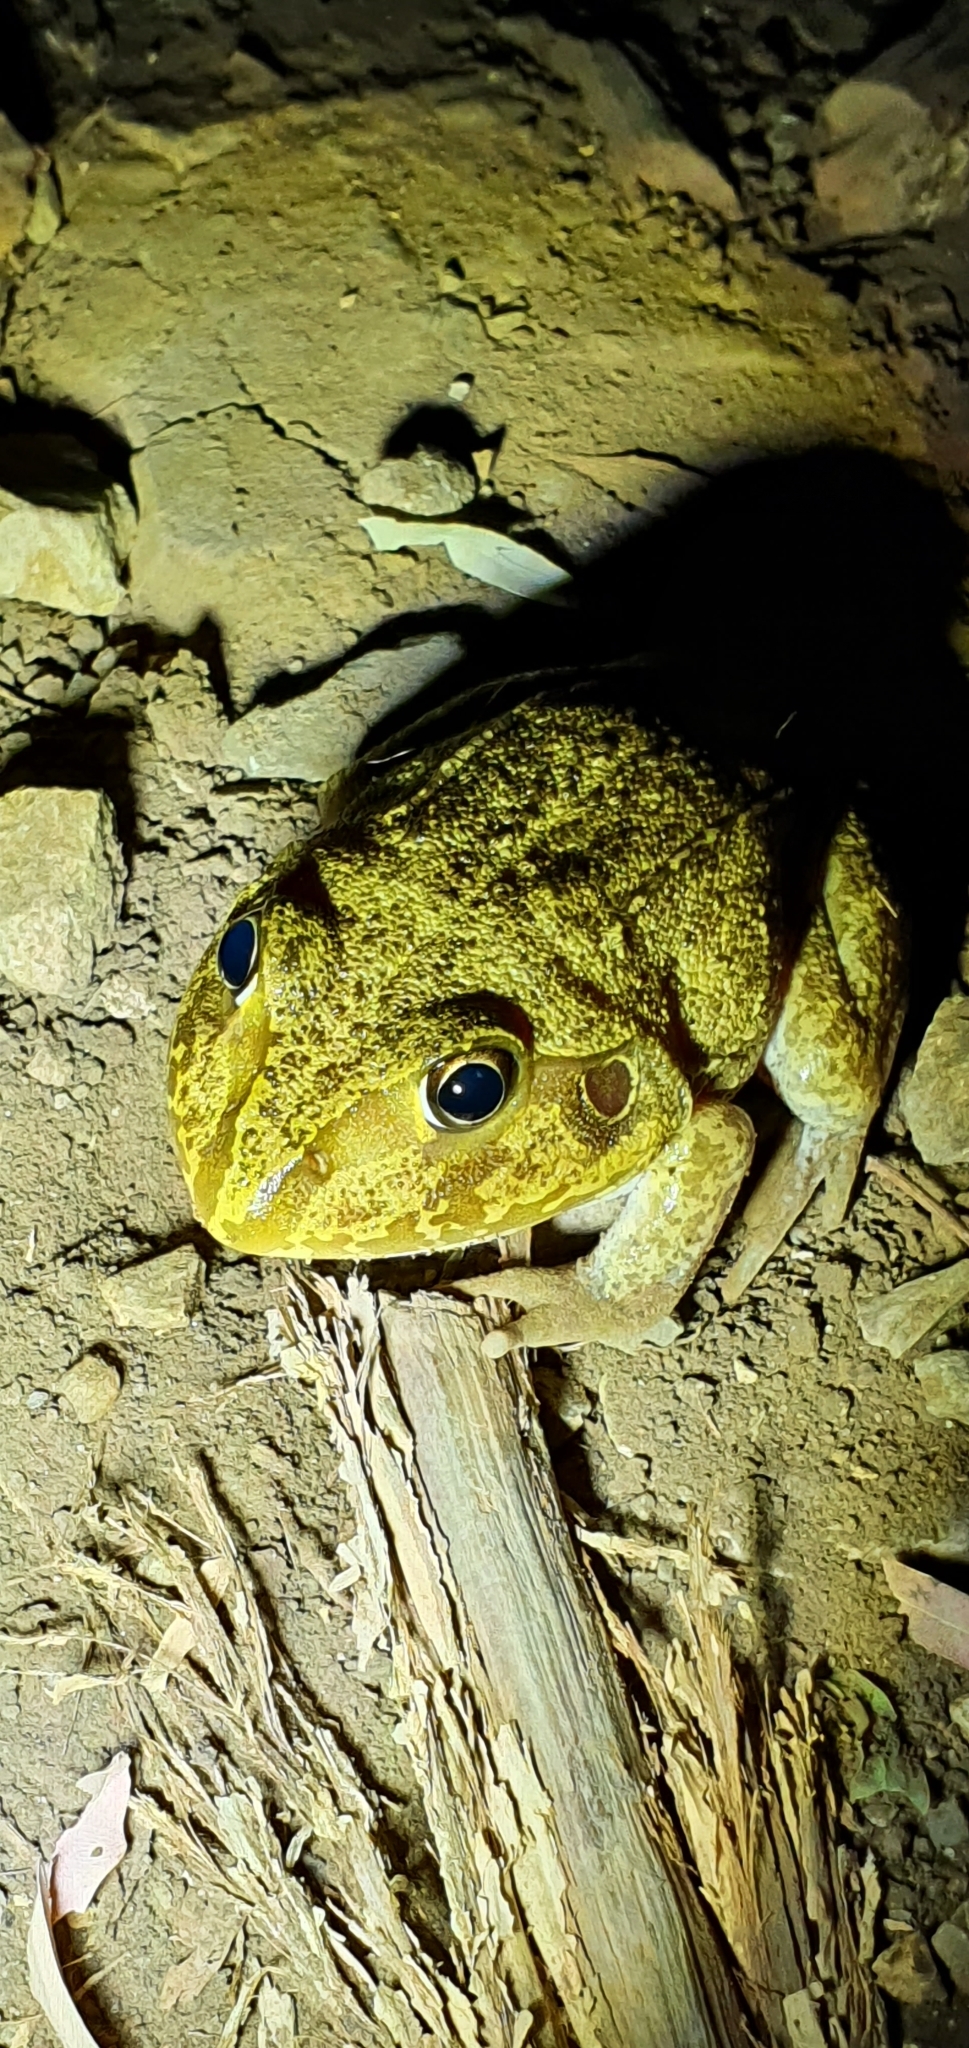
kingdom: Animalia
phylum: Chordata
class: Amphibia
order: Anura
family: Pelodryadidae
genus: Ranoidea
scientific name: Ranoidea novaehollandiae
